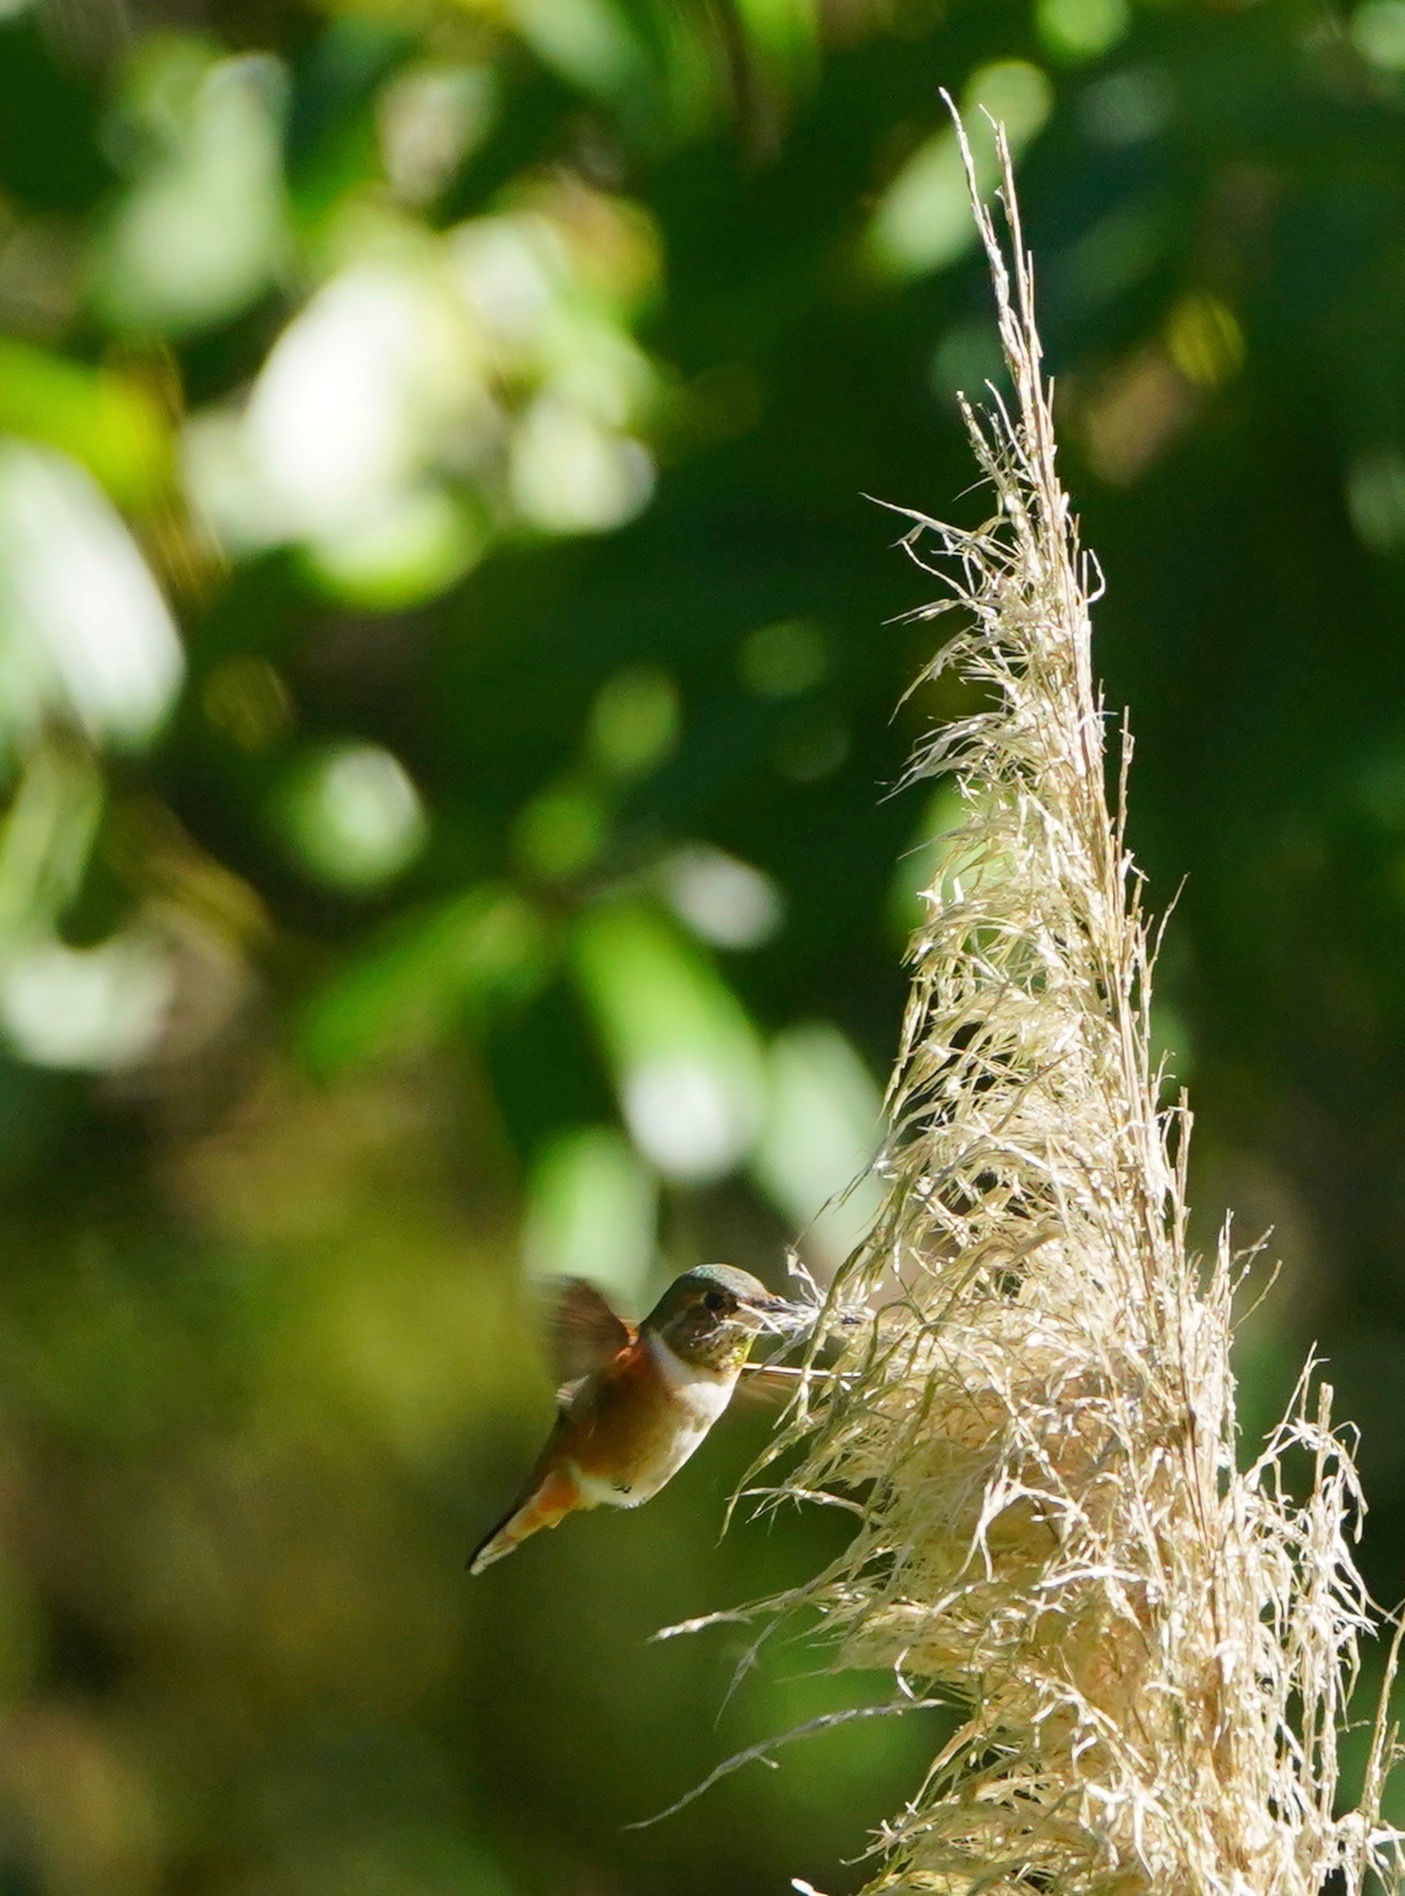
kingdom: Animalia
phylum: Chordata
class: Aves
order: Apodiformes
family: Trochilidae
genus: Selasphorus
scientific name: Selasphorus sasin
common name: Allen's hummingbird
